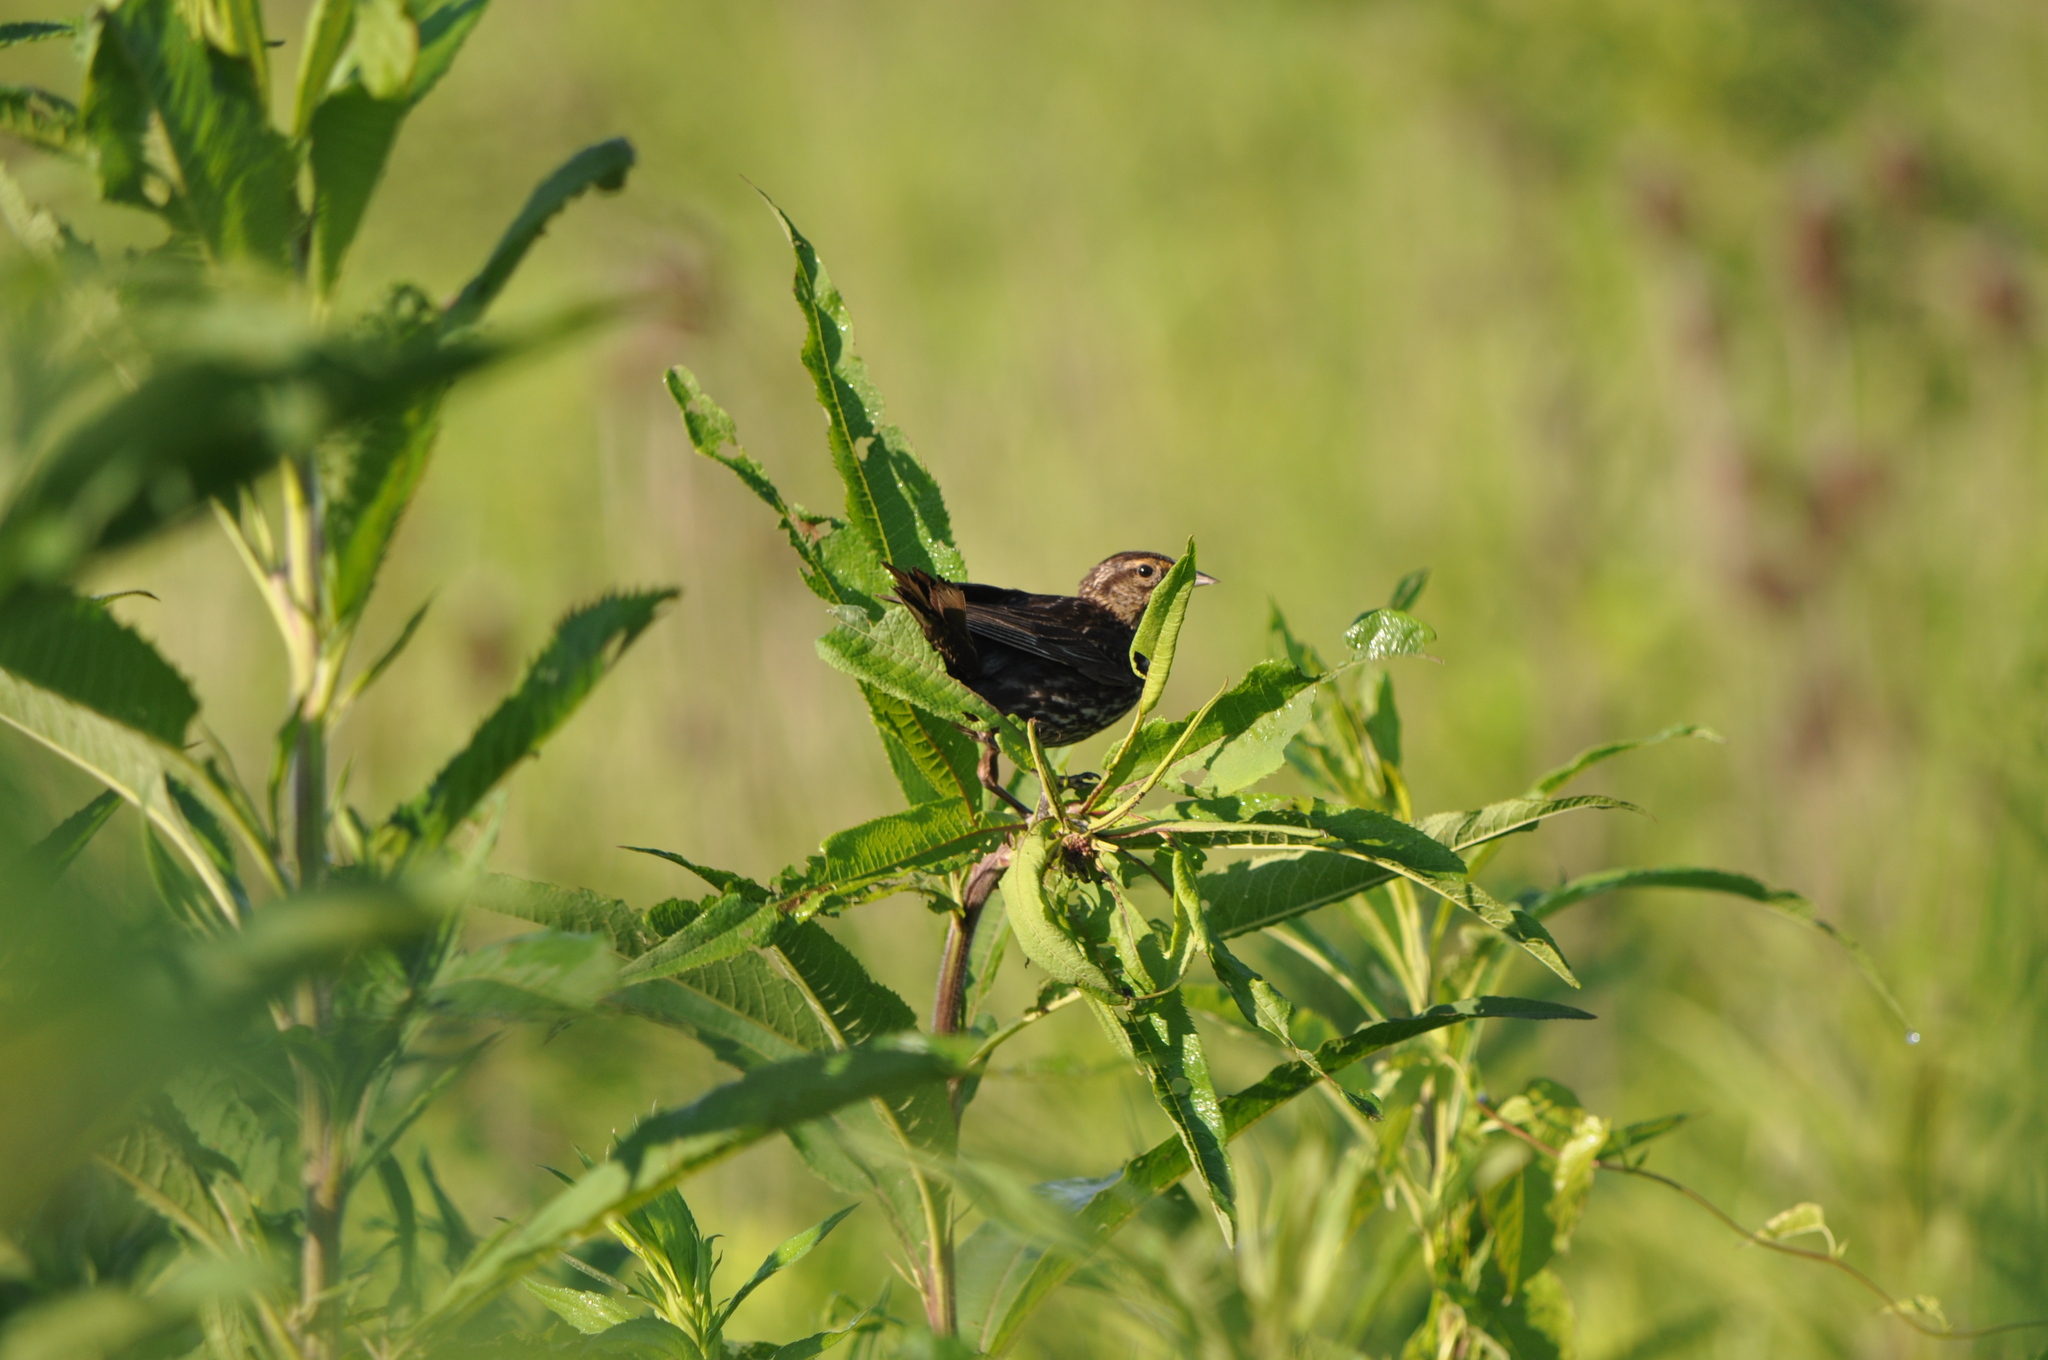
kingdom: Animalia
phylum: Chordata
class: Aves
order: Passeriformes
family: Icteridae
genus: Agelaius
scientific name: Agelaius phoeniceus
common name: Red-winged blackbird
